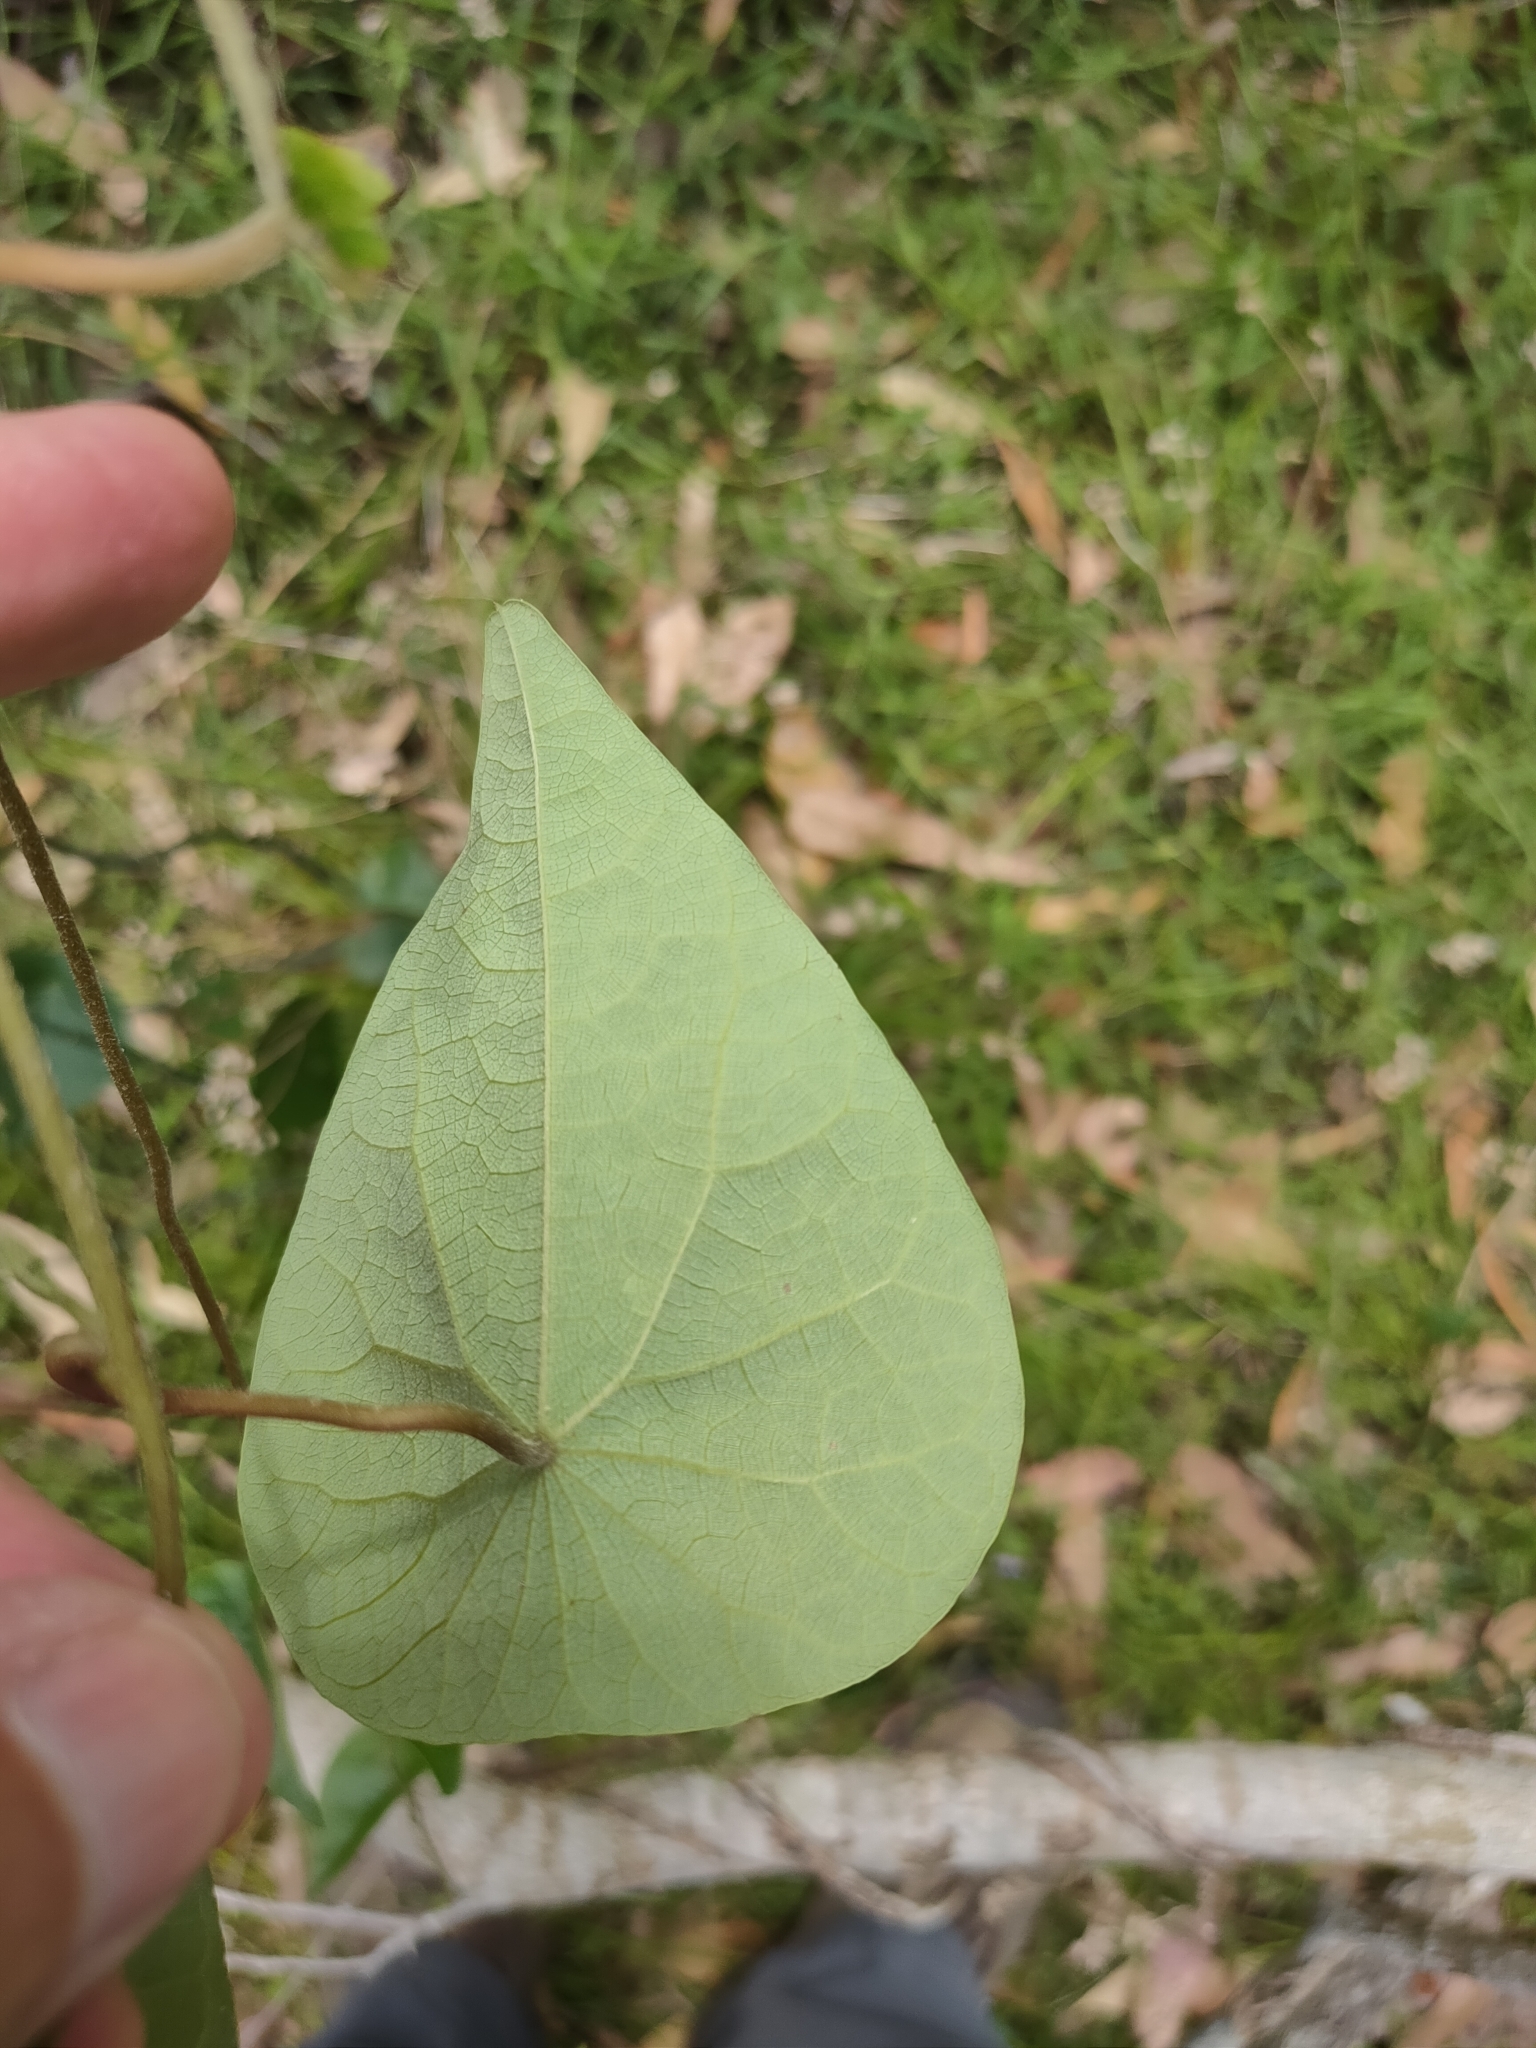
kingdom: Plantae
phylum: Tracheophyta
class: Magnoliopsida
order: Ranunculales
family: Menispermaceae
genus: Stephania
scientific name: Stephania japonica
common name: Snake vine
